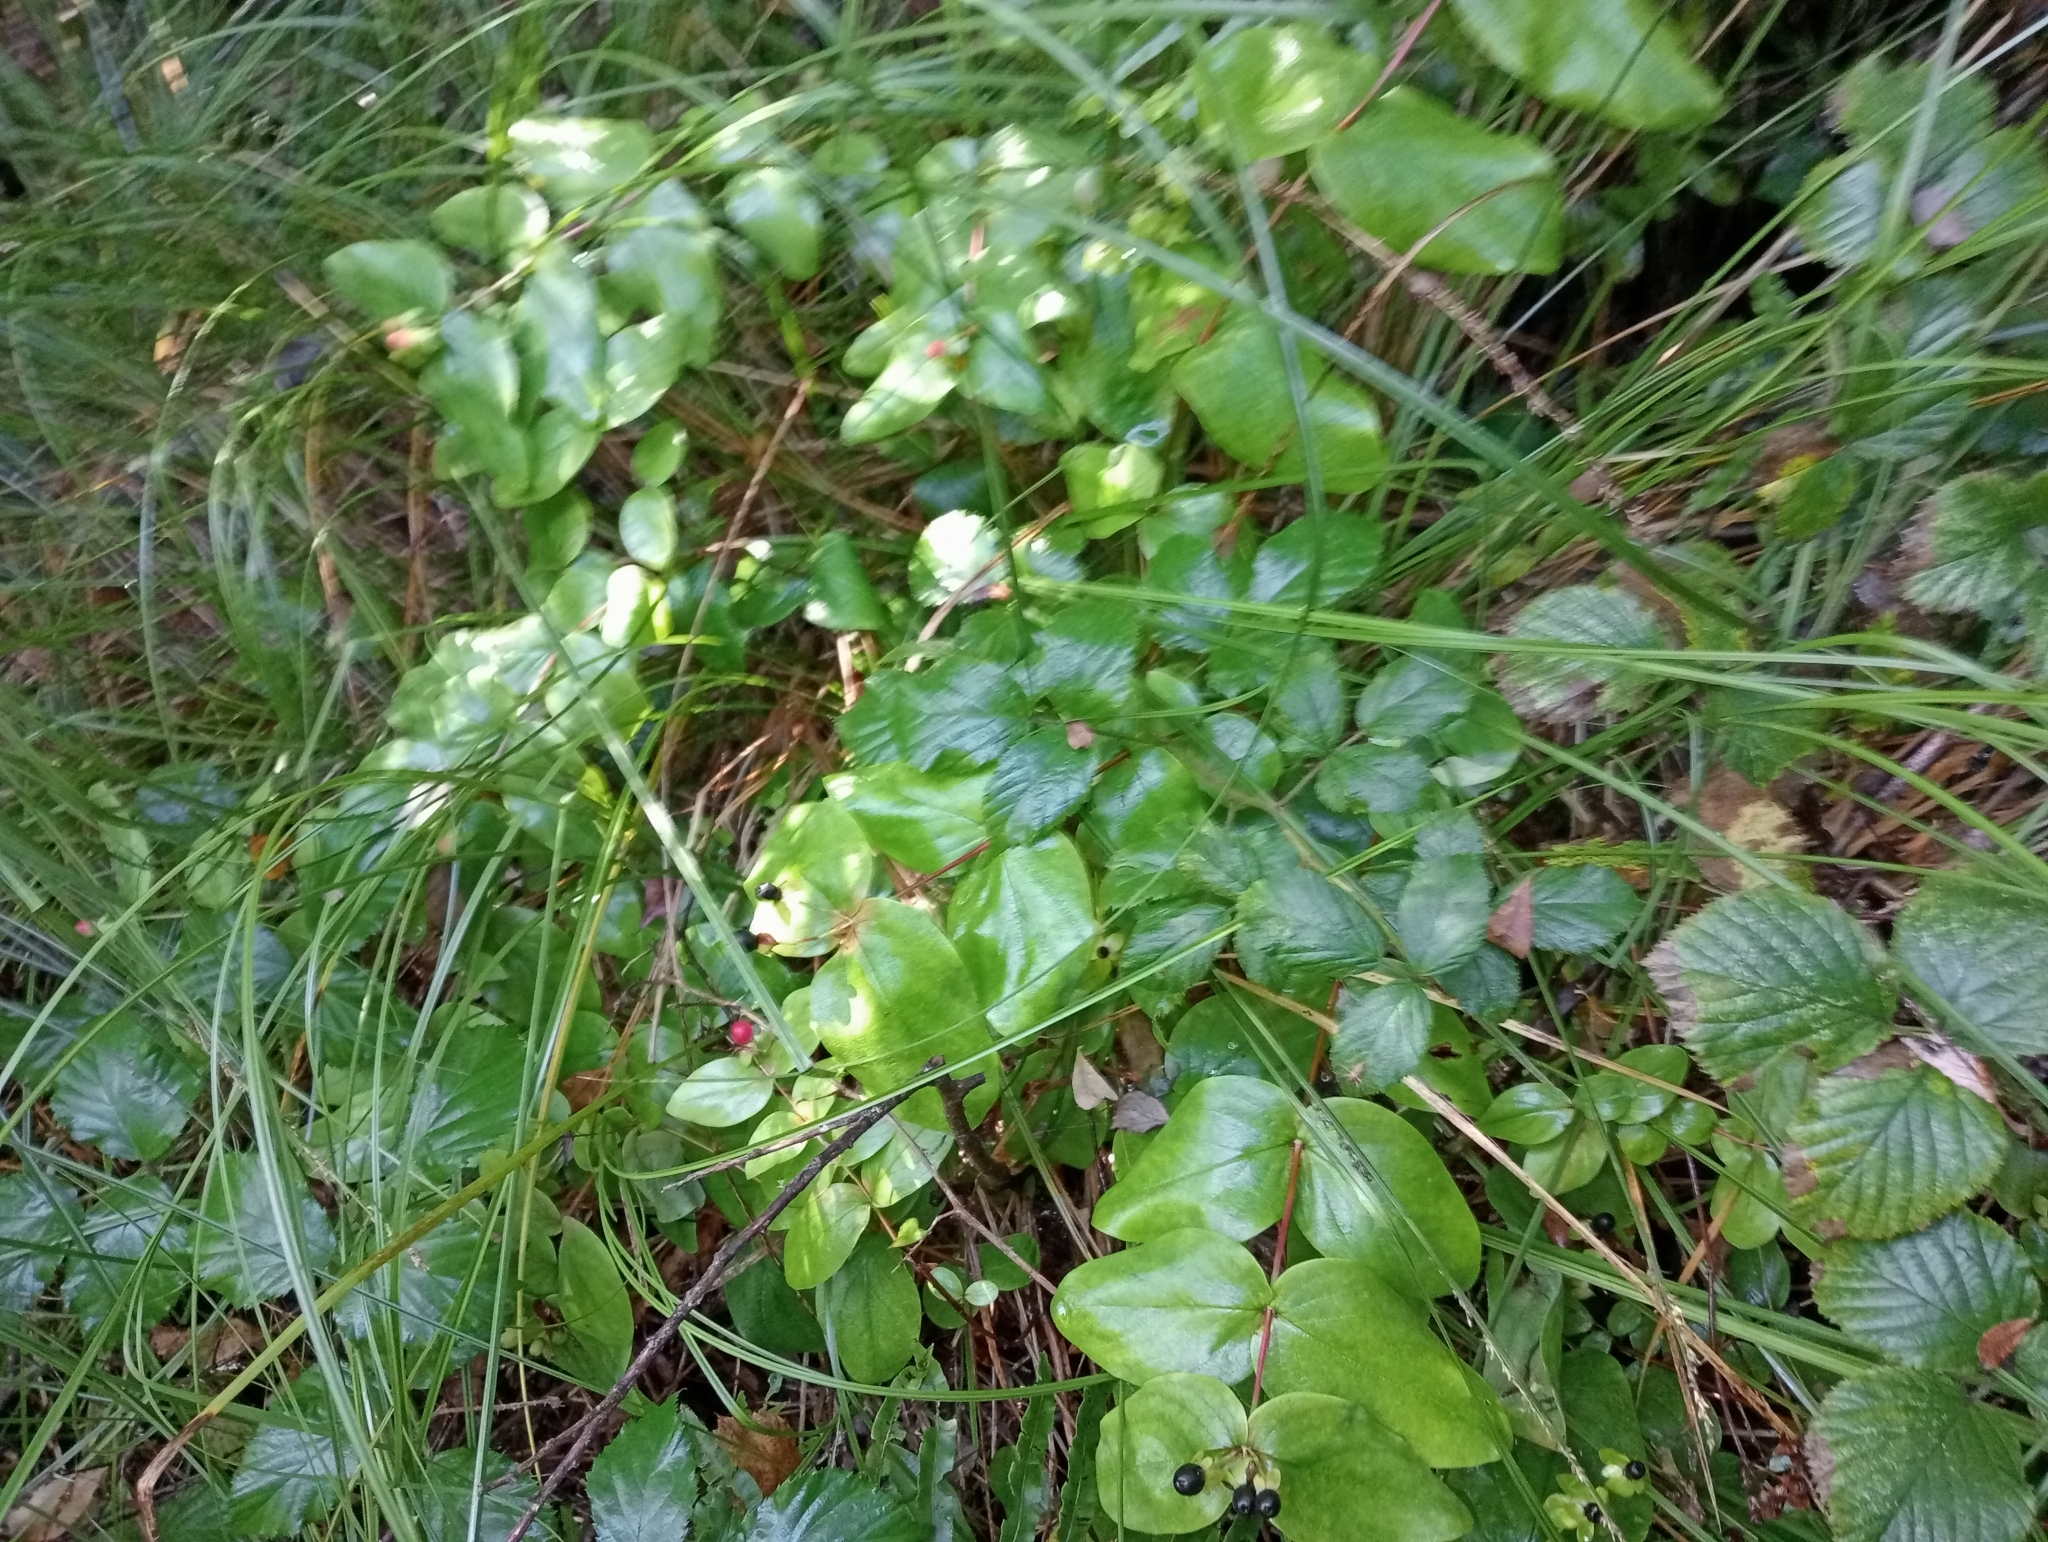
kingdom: Plantae
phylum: Tracheophyta
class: Magnoliopsida
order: Malpighiales
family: Hypericaceae
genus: Hypericum
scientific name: Hypericum androsaemum
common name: Sweet-amber
